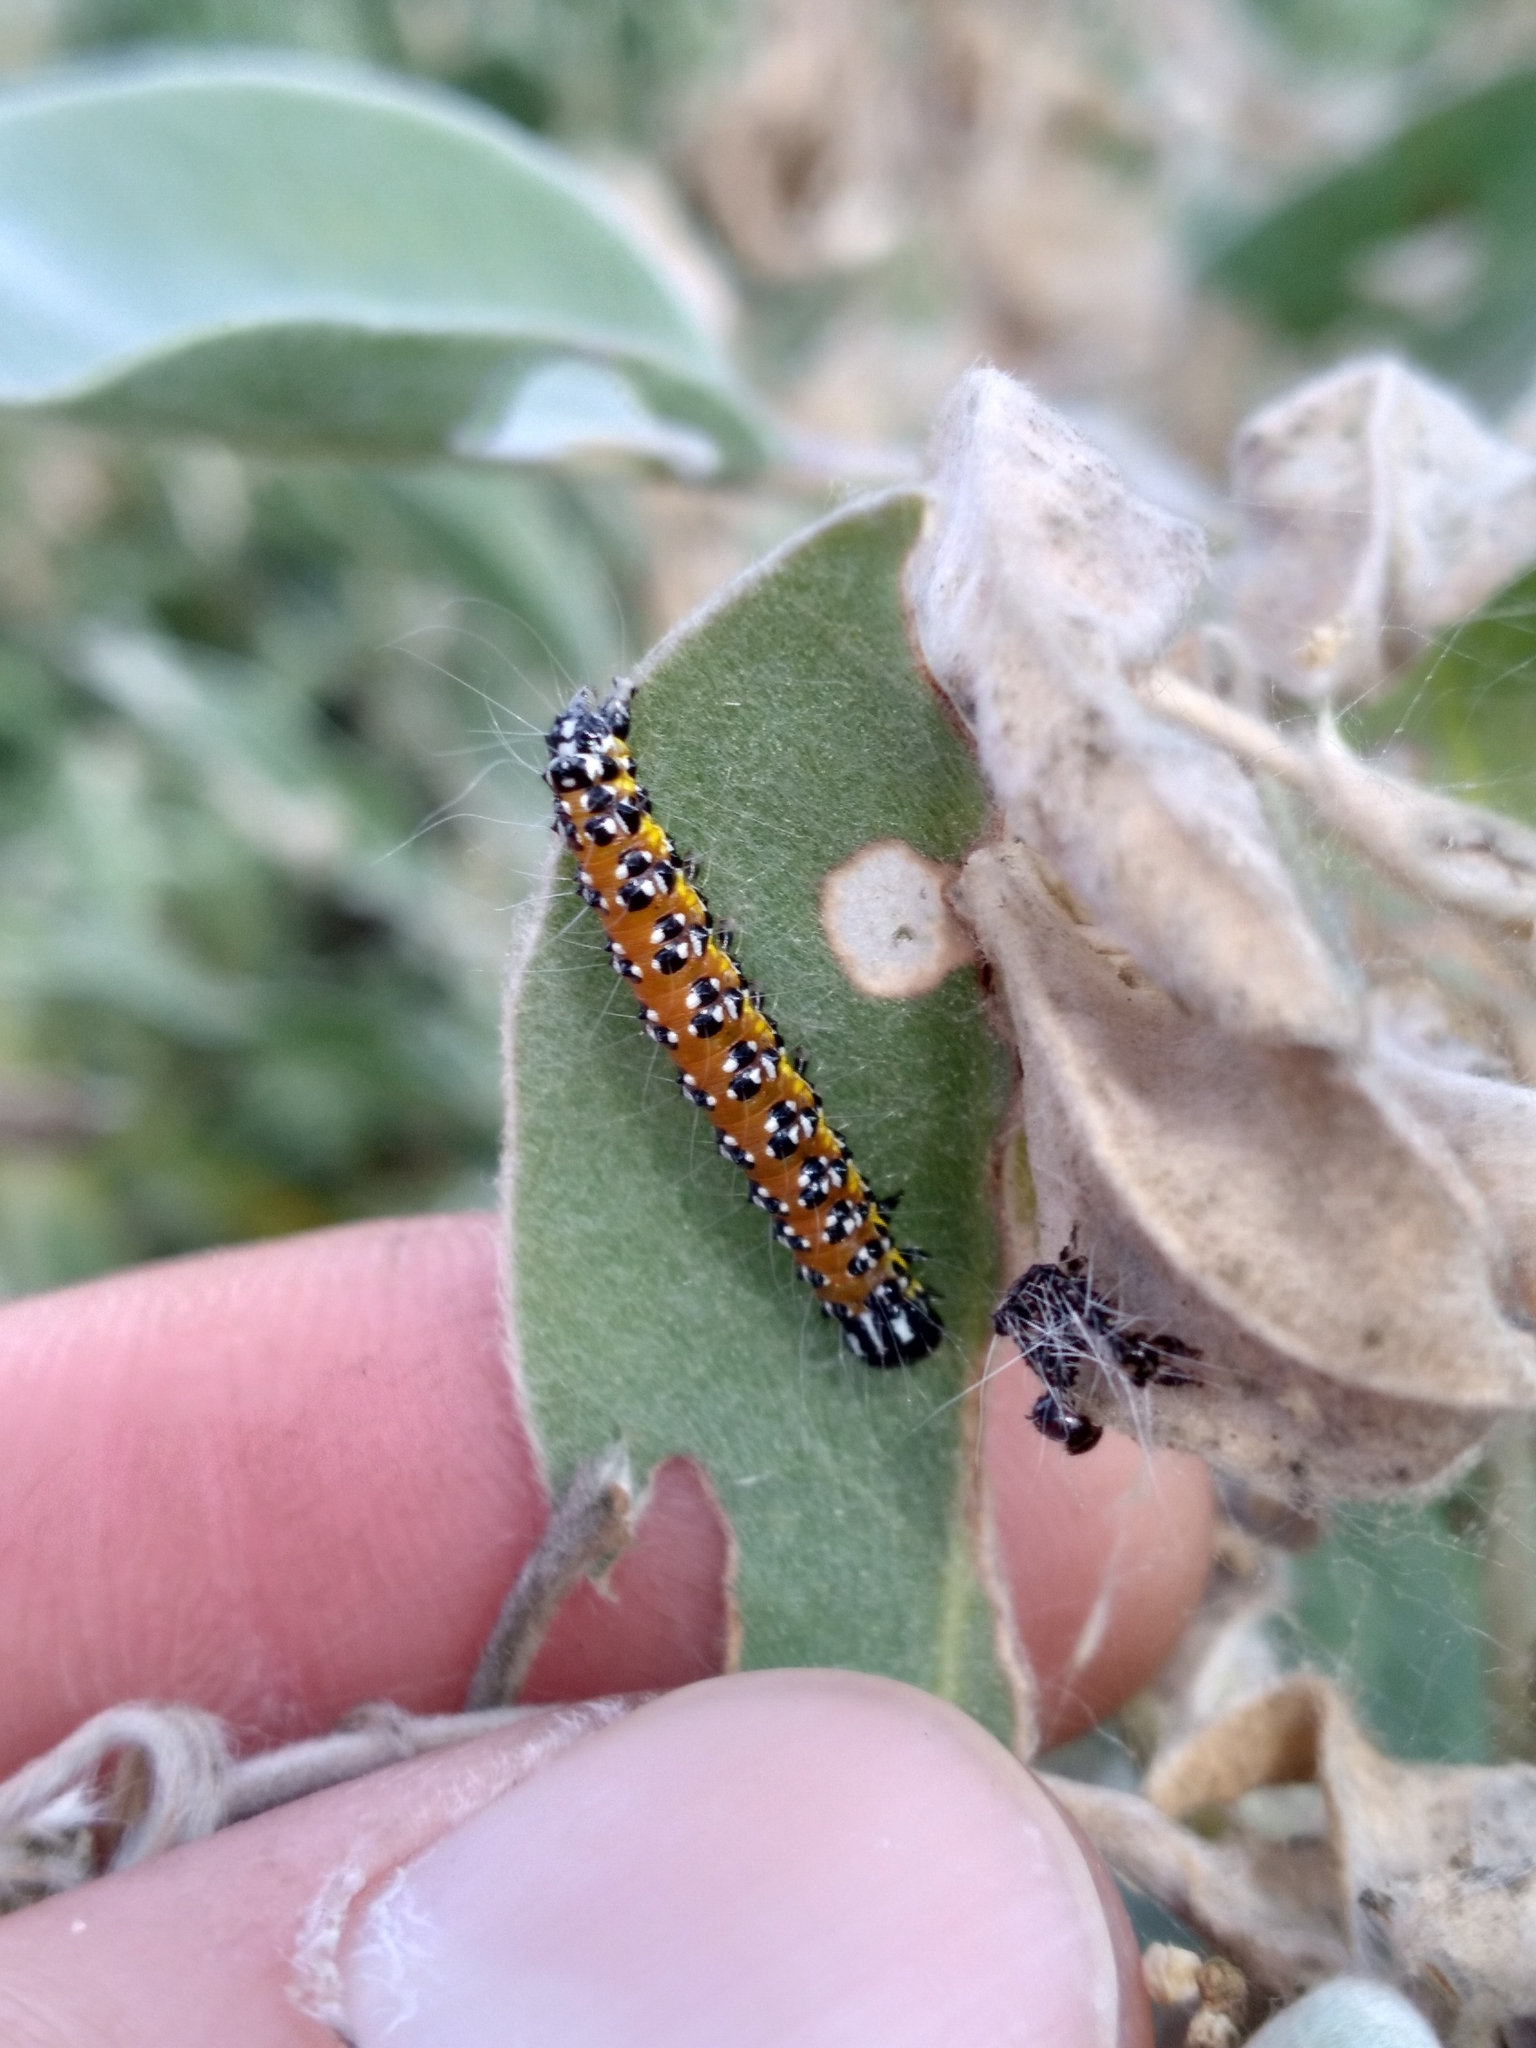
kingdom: Animalia
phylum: Arthropoda
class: Insecta
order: Lepidoptera
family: Crambidae
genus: Uresiphita
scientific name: Uresiphita reversalis
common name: Genista broom moth
